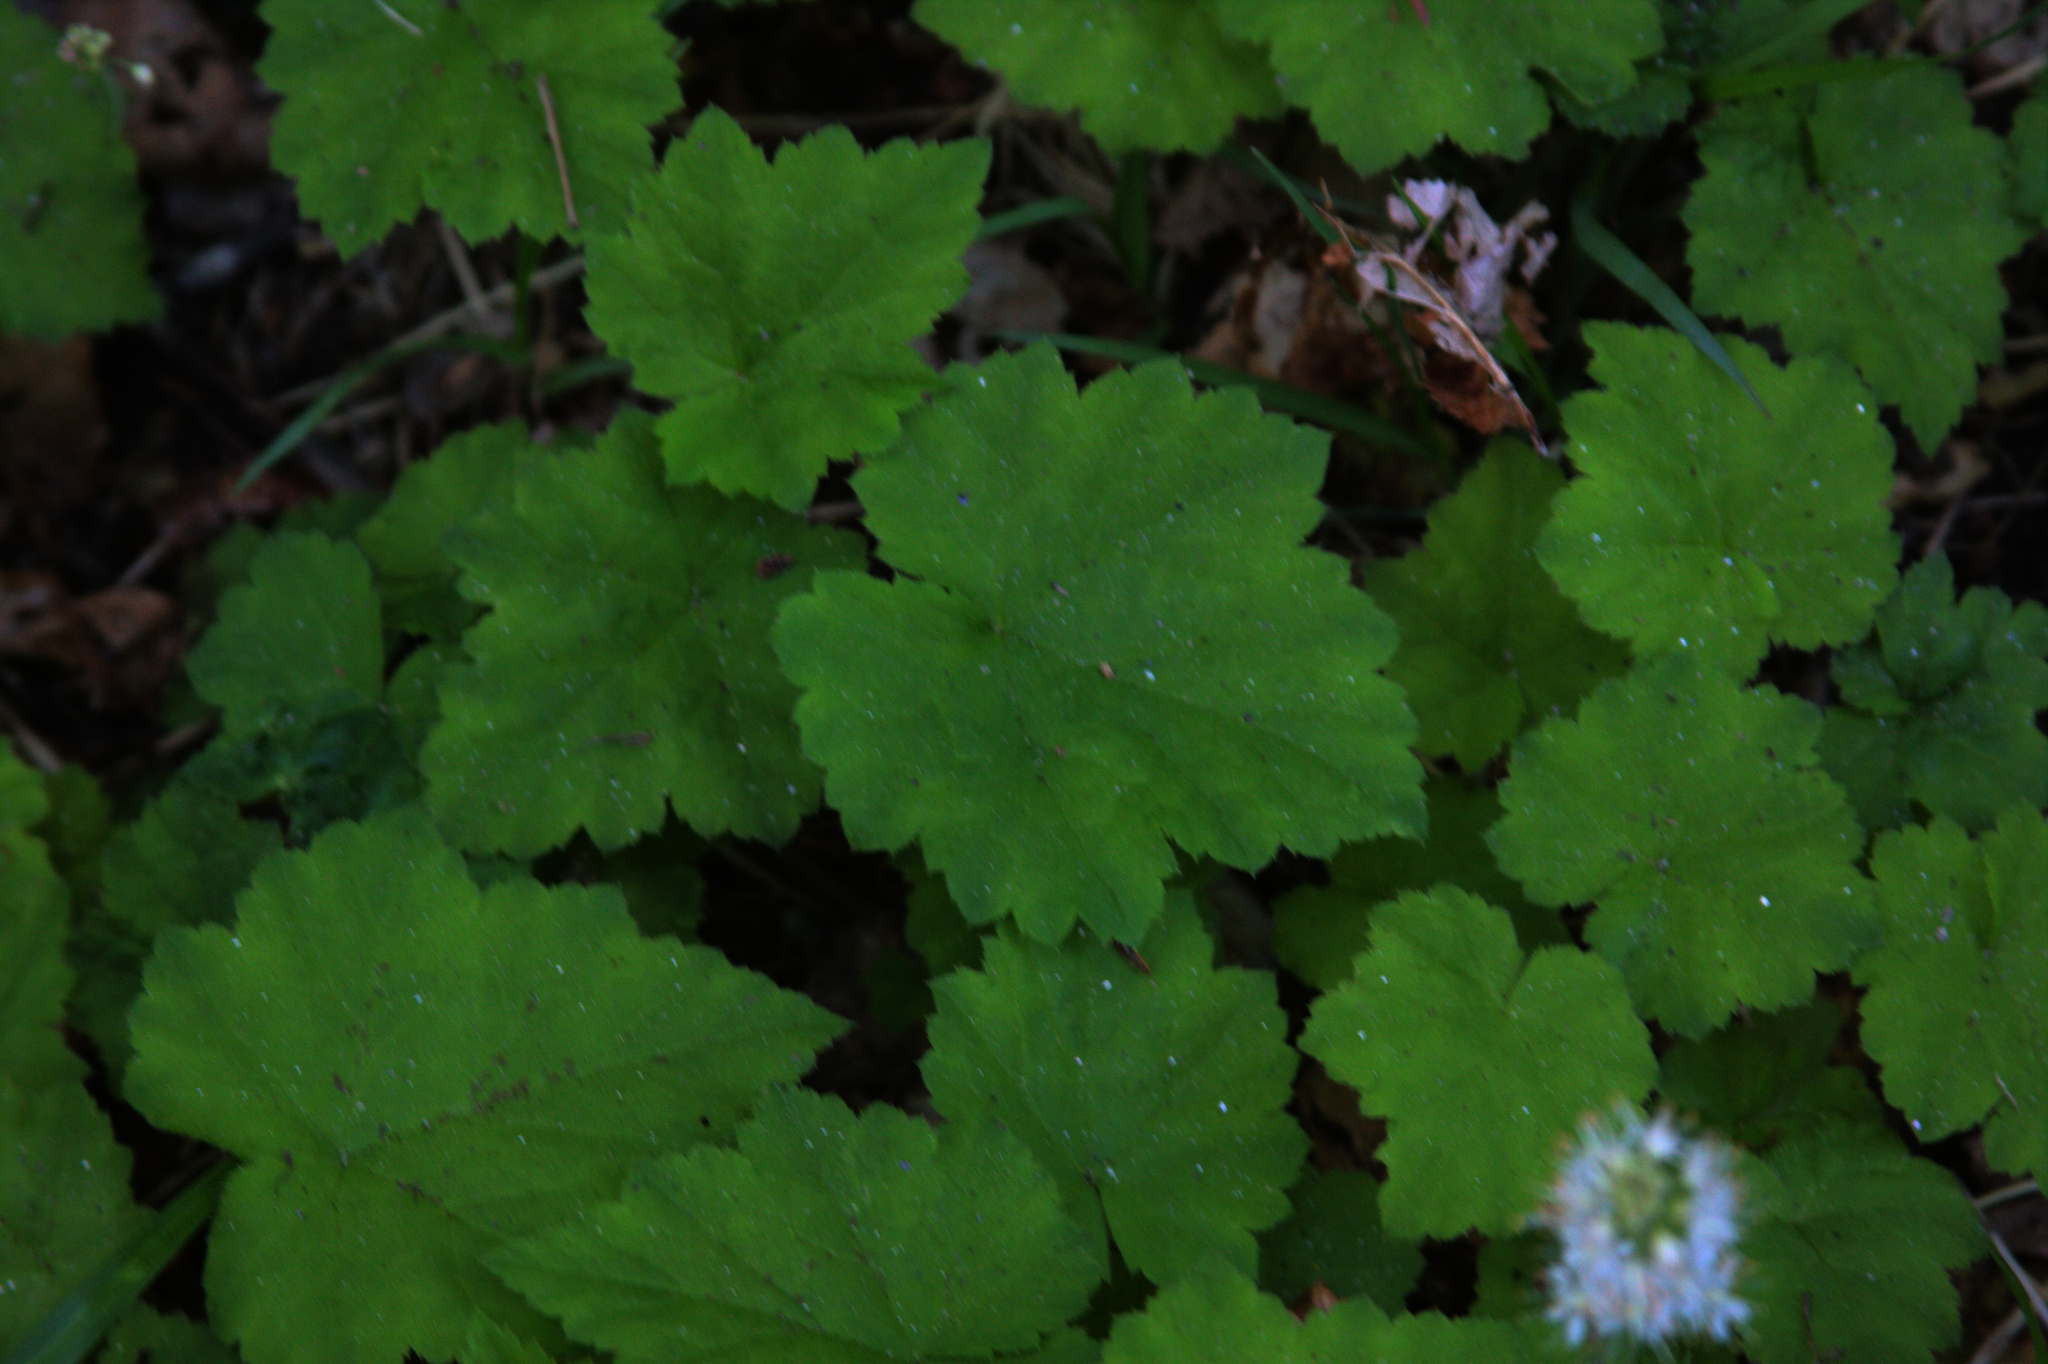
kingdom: Plantae
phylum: Tracheophyta
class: Magnoliopsida
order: Saxifragales
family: Saxifragaceae
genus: Tiarella
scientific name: Tiarella stolonifera
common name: Stoloniferous foamflower
